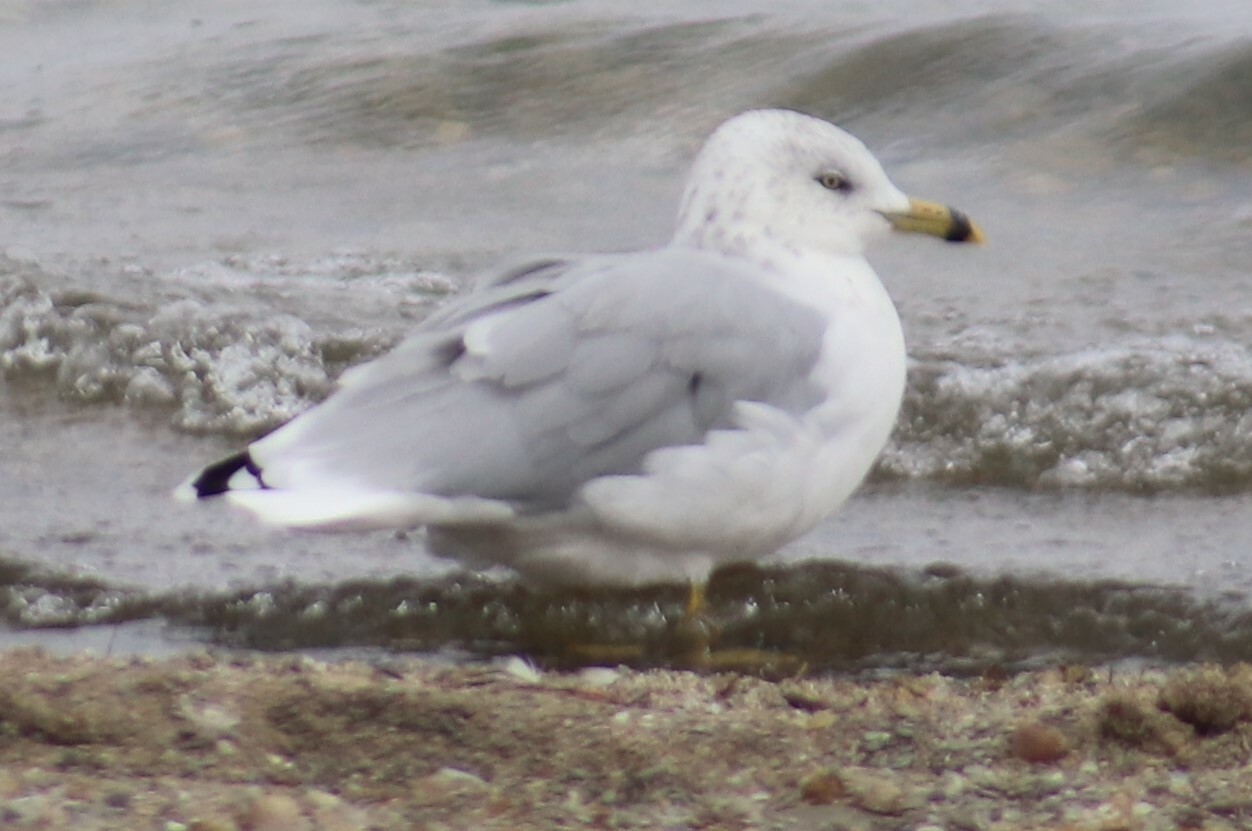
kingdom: Animalia
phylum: Chordata
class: Aves
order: Charadriiformes
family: Laridae
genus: Larus
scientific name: Larus delawarensis
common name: Ring-billed gull
